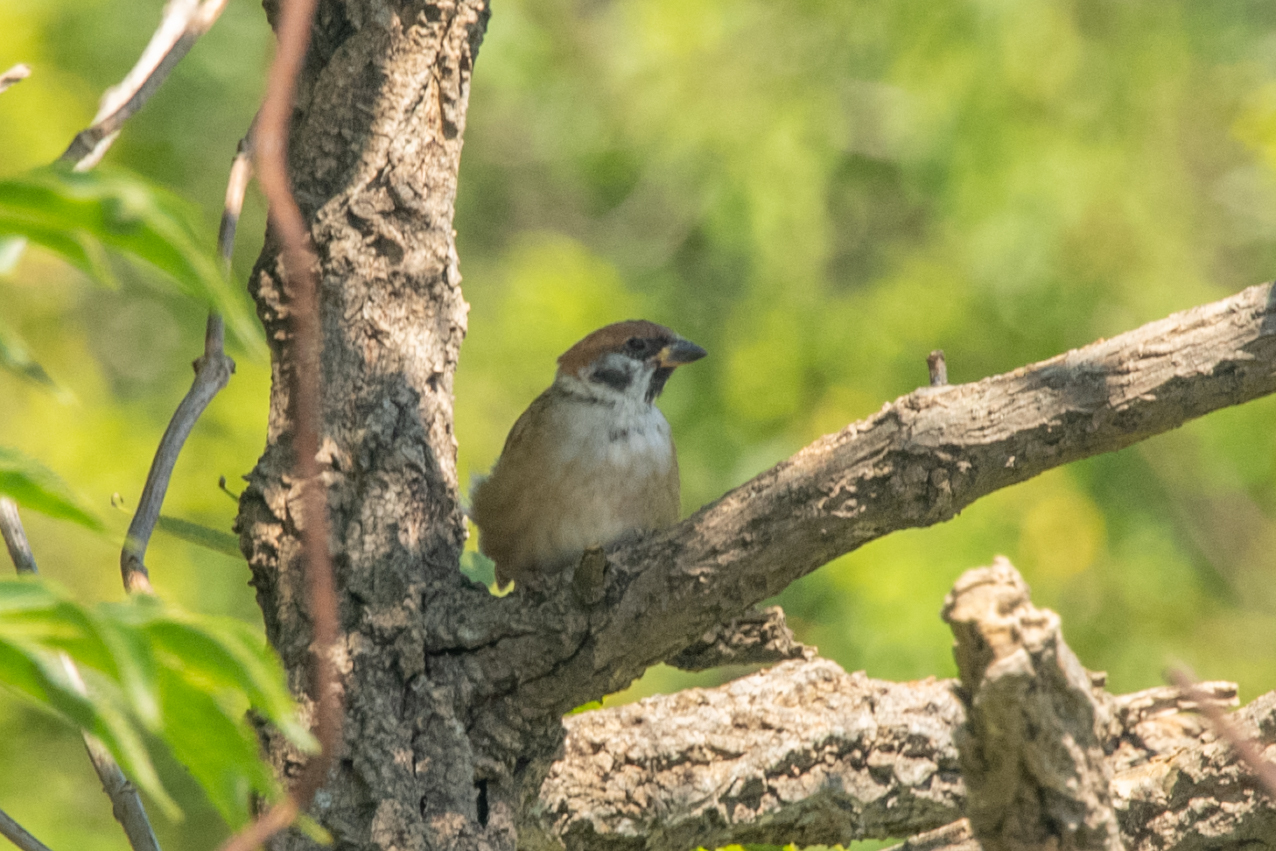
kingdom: Animalia
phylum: Chordata
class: Aves
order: Passeriformes
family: Passeridae
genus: Passer
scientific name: Passer montanus
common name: Eurasian tree sparrow
